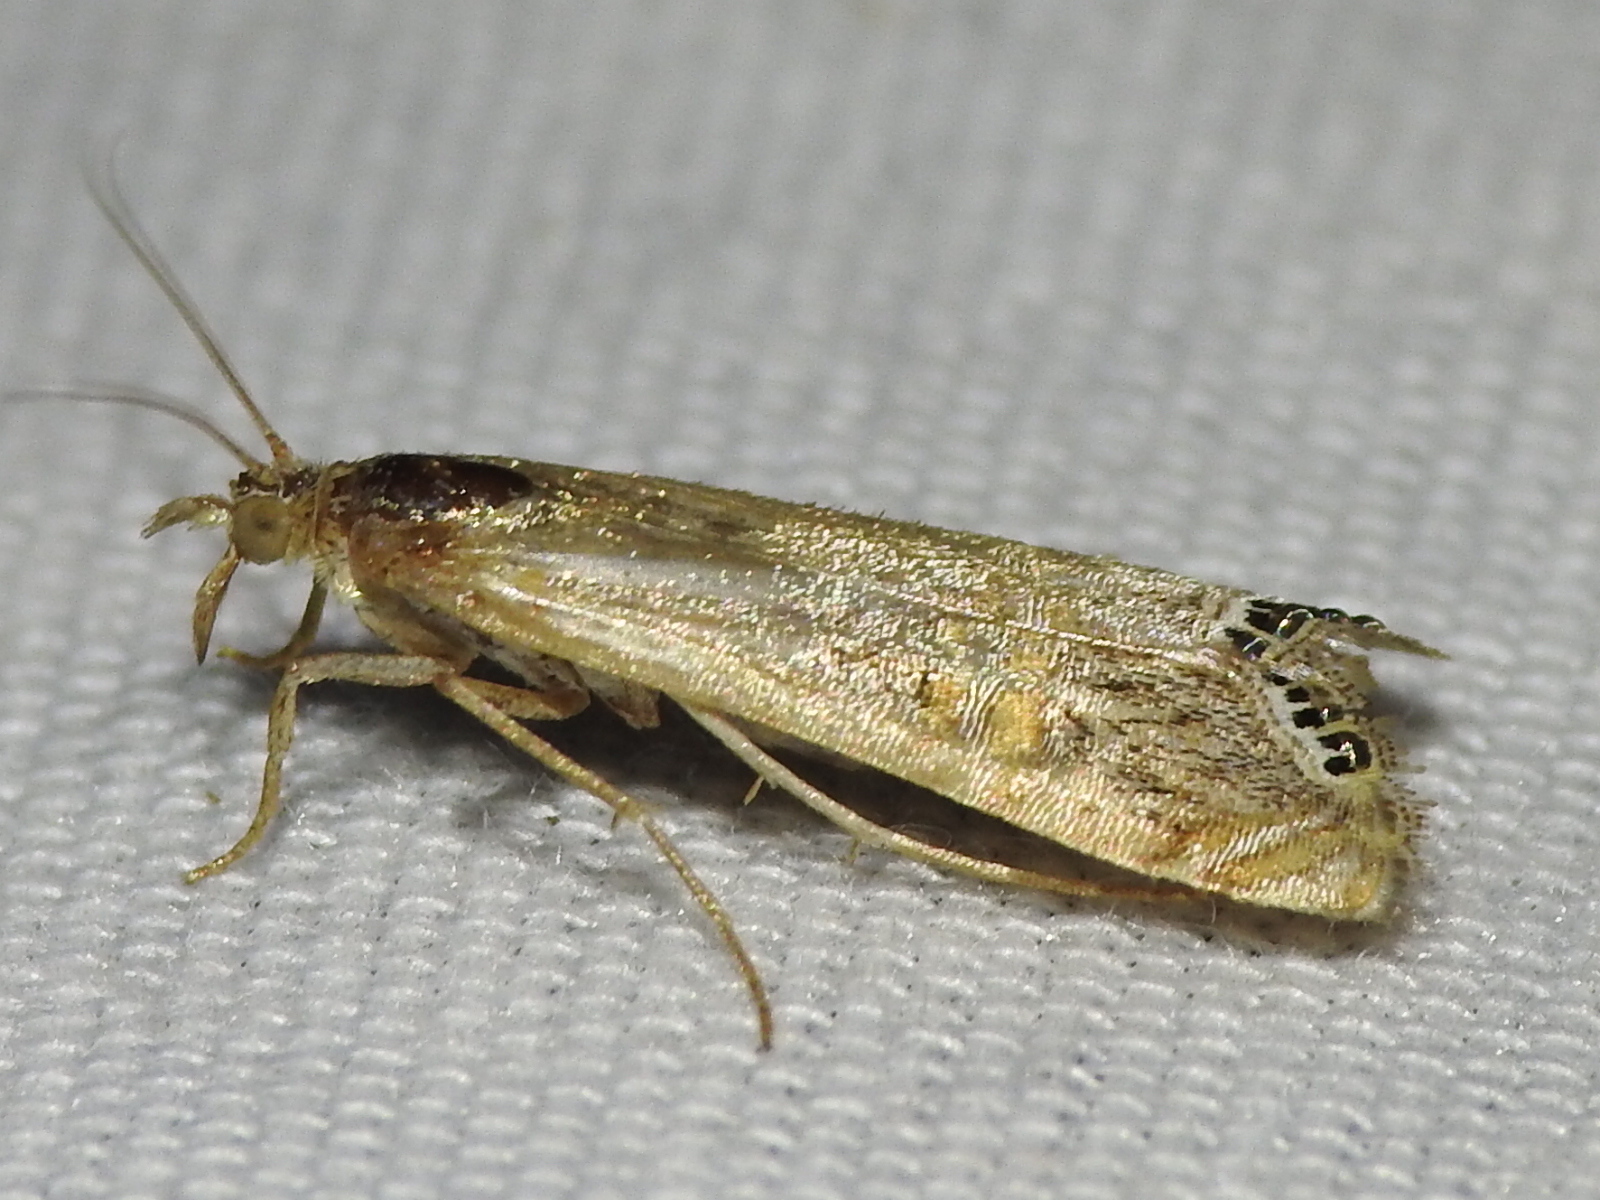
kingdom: Animalia
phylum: Arthropoda
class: Insecta
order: Lepidoptera
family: Crambidae
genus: Euchromius
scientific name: Euchromius ocellea
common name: Necklace veneer moth
